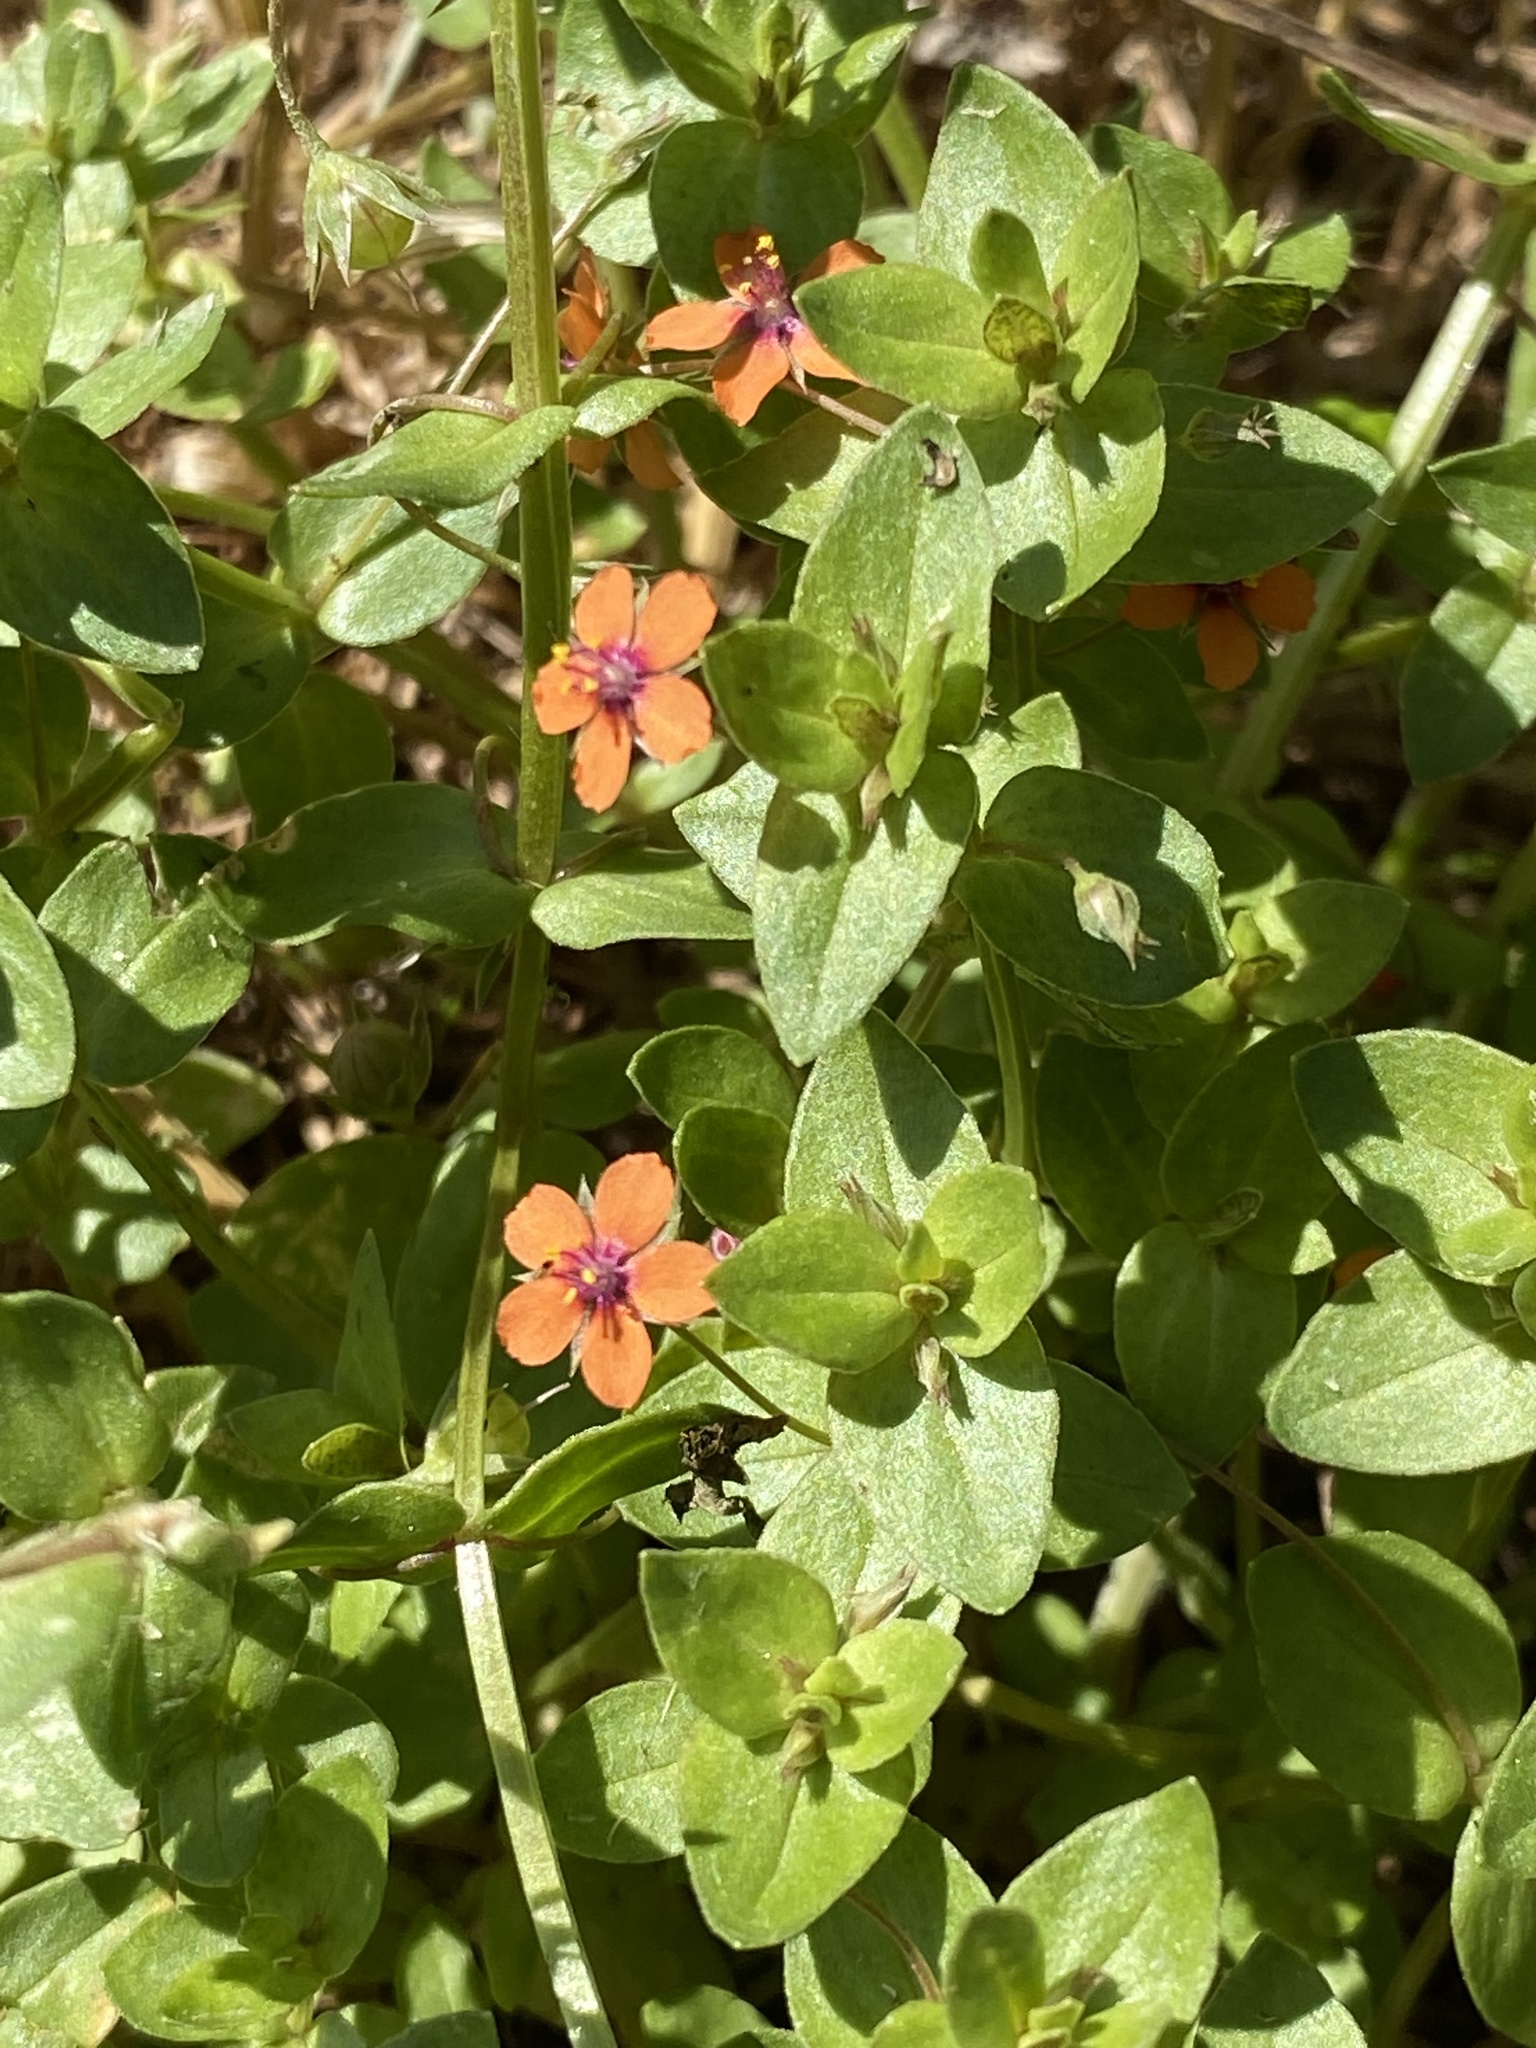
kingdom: Plantae
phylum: Tracheophyta
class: Magnoliopsida
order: Ericales
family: Primulaceae
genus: Lysimachia
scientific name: Lysimachia arvensis
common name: Scarlet pimpernel
